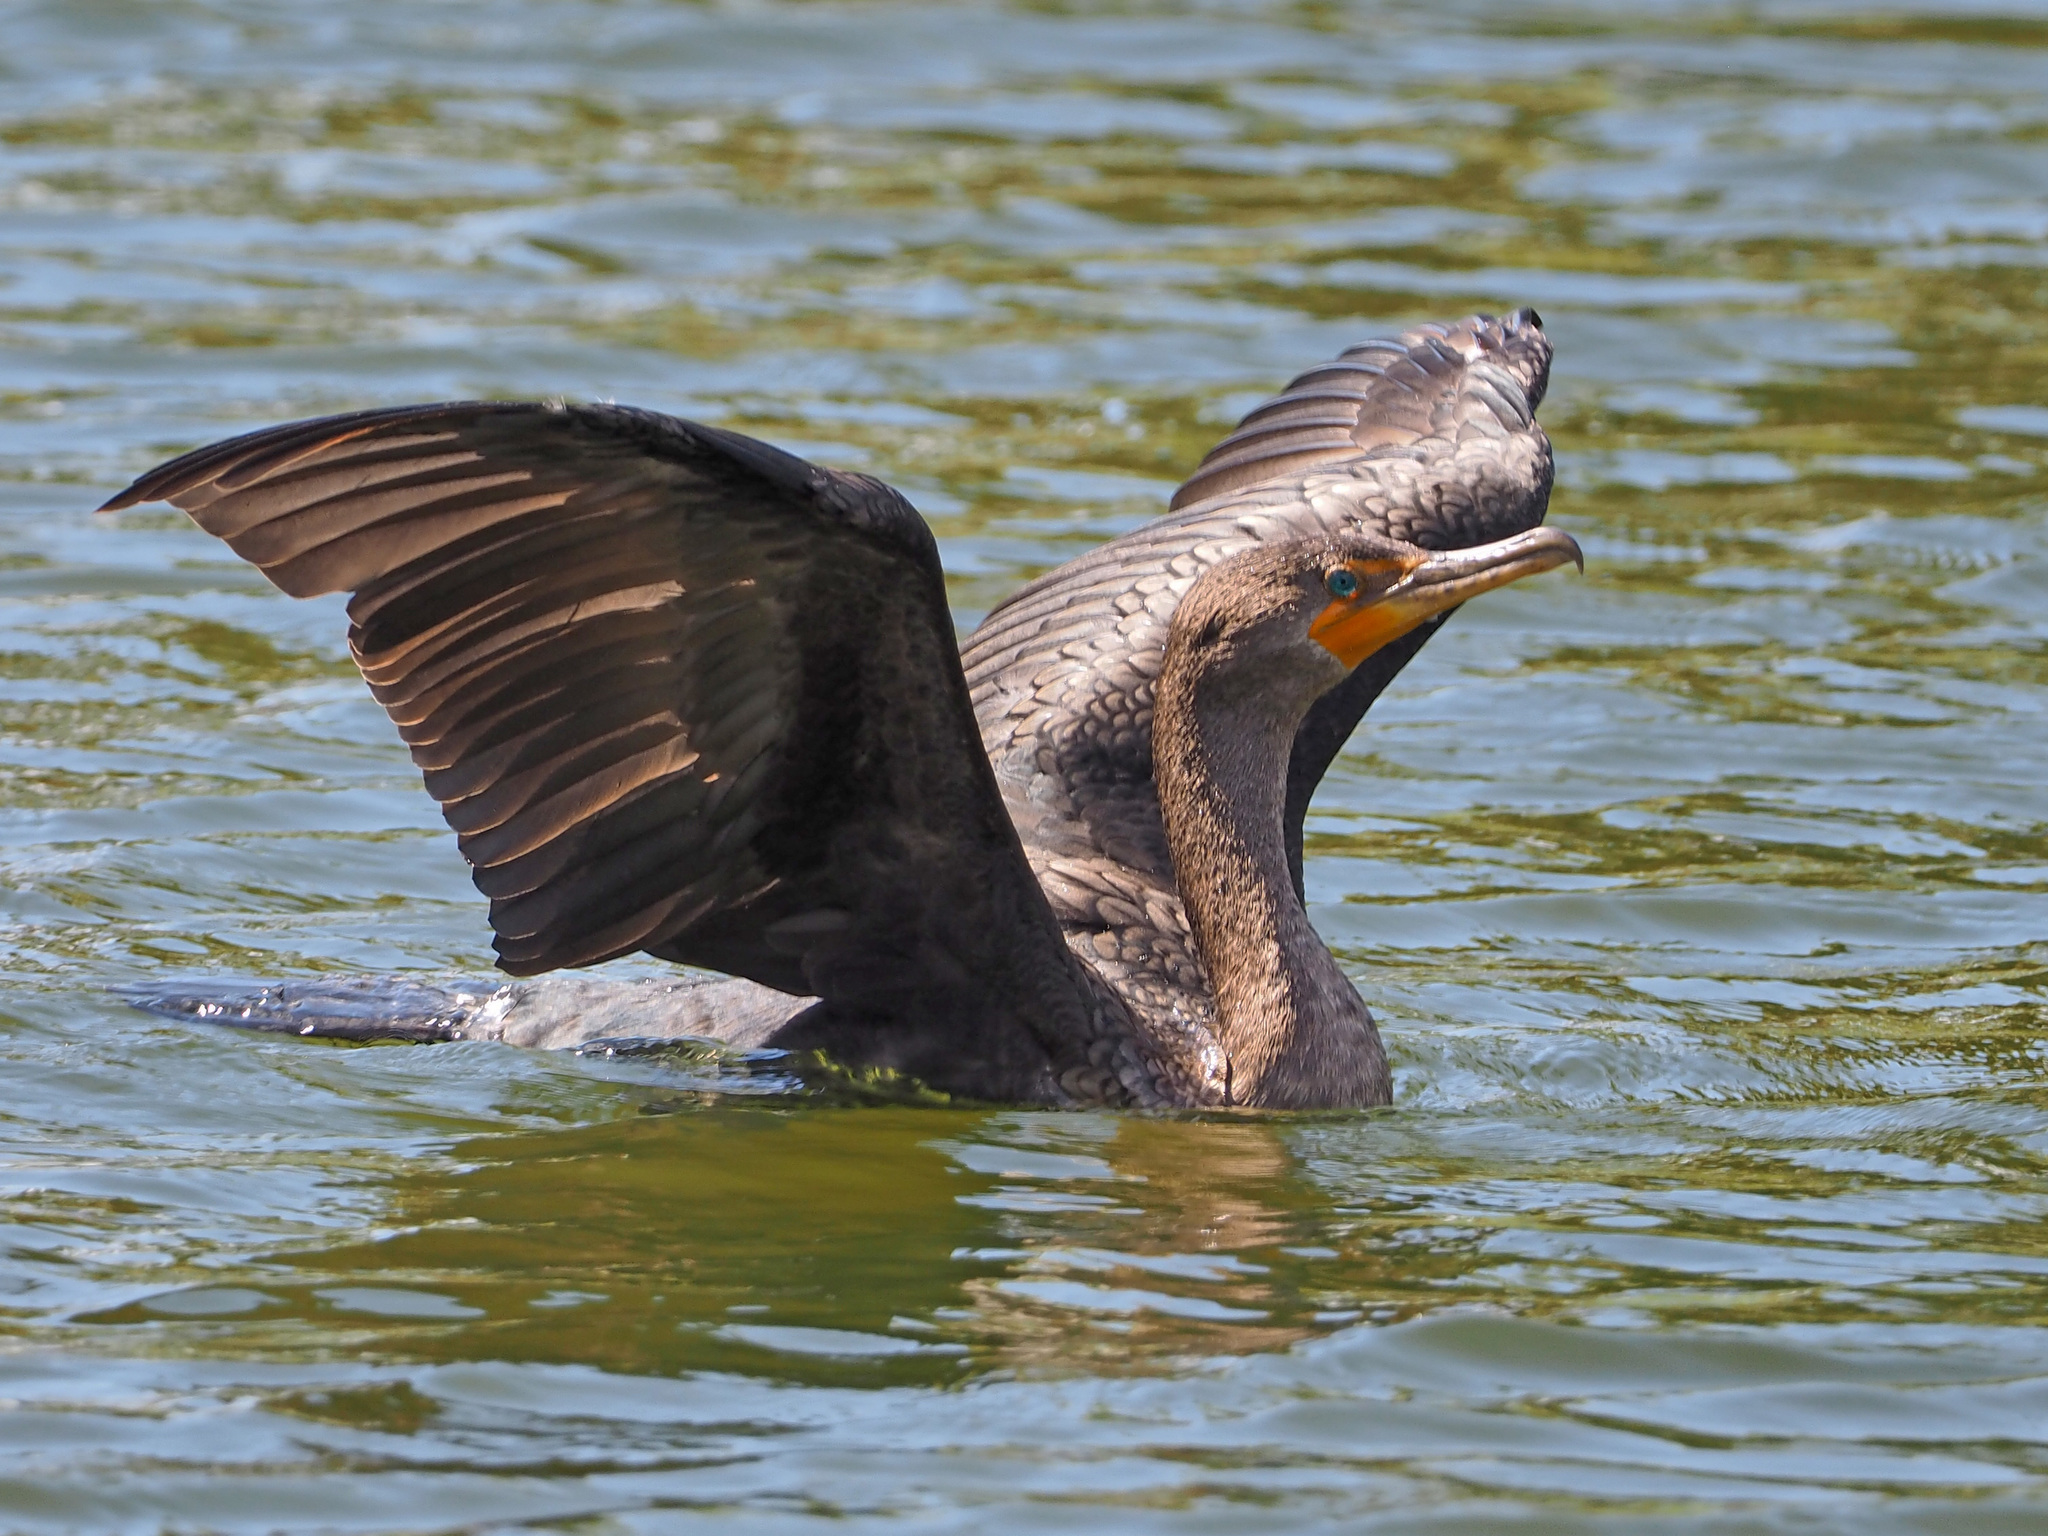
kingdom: Animalia
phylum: Chordata
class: Aves
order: Suliformes
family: Phalacrocoracidae
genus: Phalacrocorax
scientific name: Phalacrocorax auritus
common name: Double-crested cormorant
